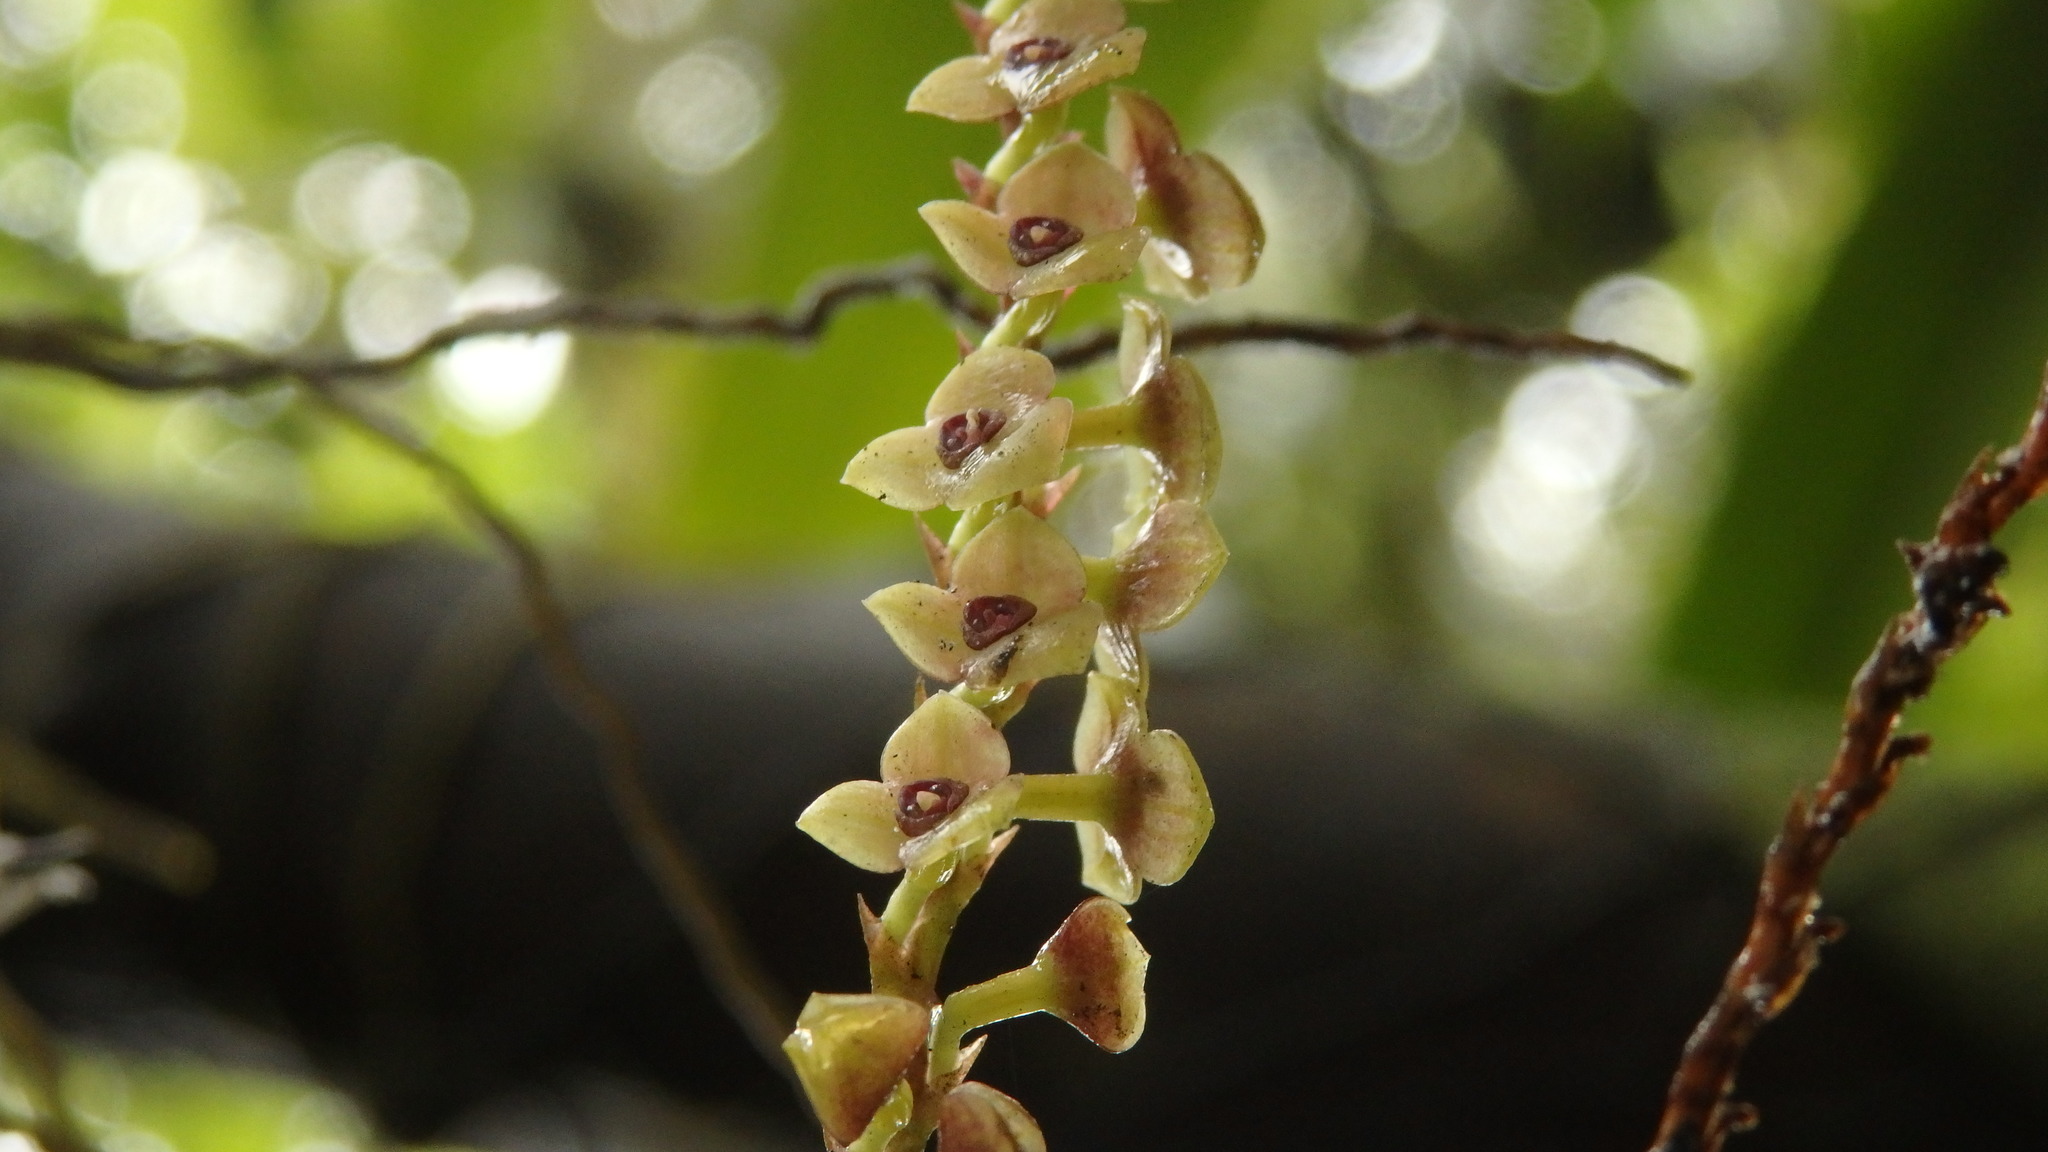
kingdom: Plantae
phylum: Tracheophyta
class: Liliopsida
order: Asparagales
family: Orchidaceae
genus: Stelis
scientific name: Stelis purpurascens
